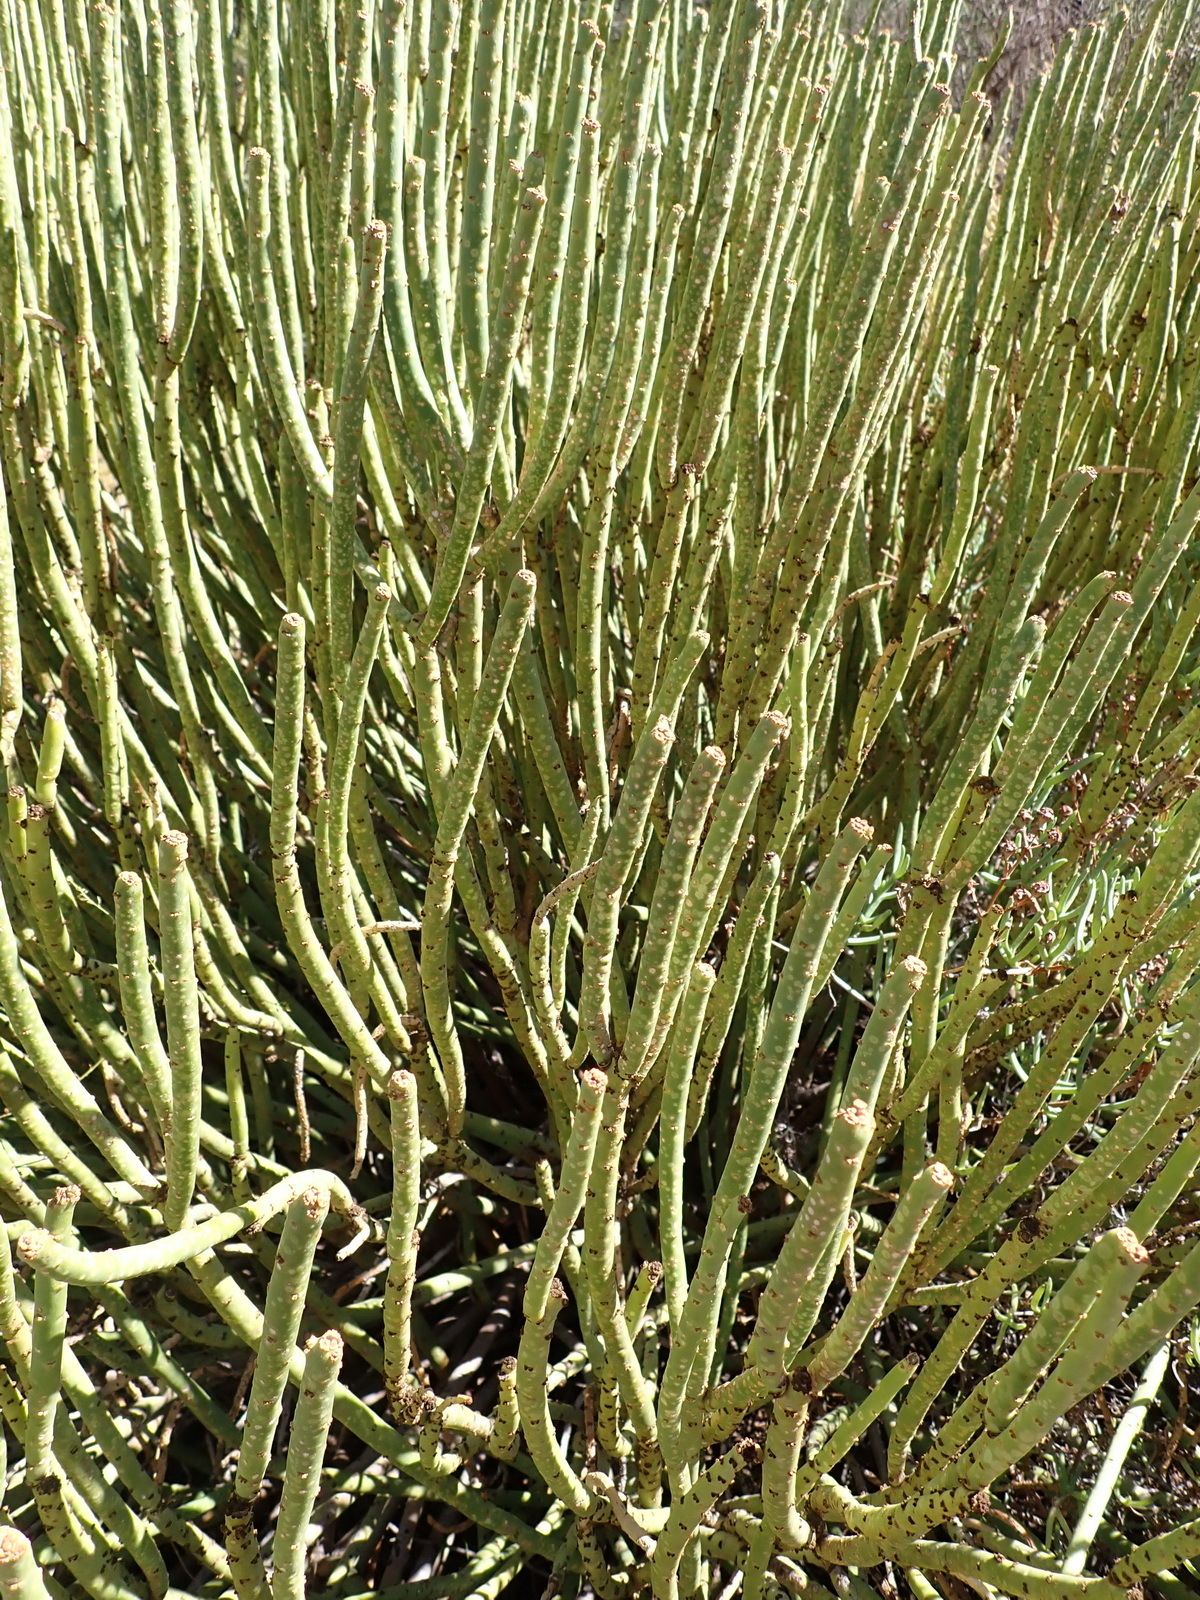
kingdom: Plantae
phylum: Tracheophyta
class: Magnoliopsida
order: Malpighiales
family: Euphorbiaceae
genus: Euphorbia
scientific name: Euphorbia mauritanica
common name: Jackal's-food
